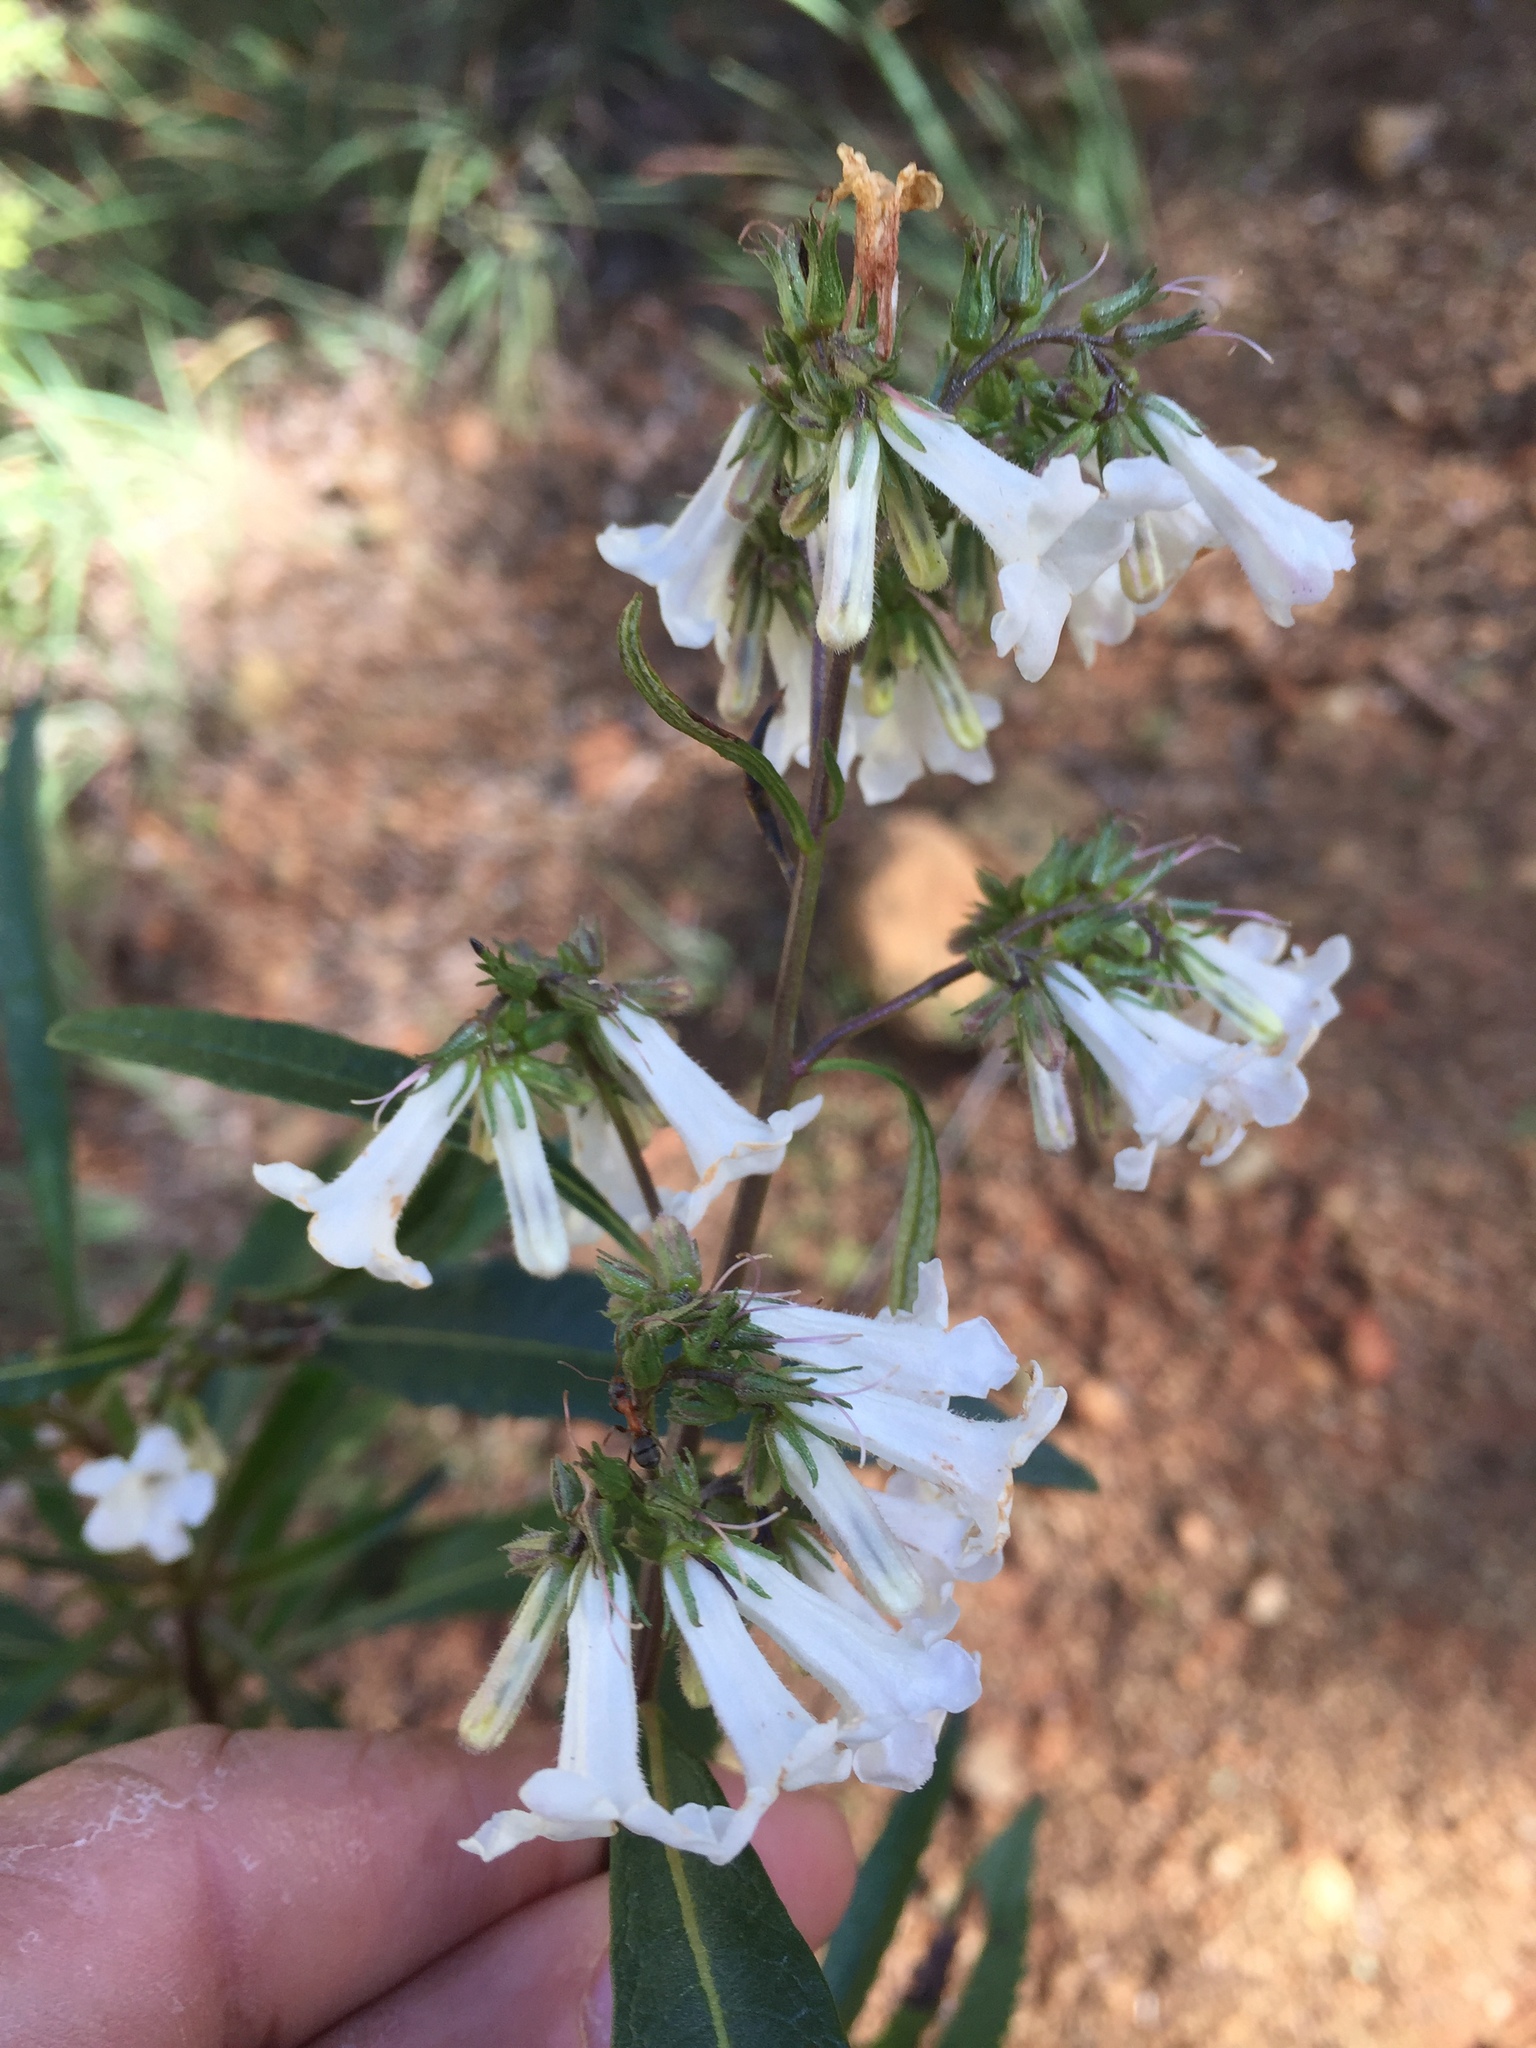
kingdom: Plantae
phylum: Tracheophyta
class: Magnoliopsida
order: Boraginales
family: Namaceae
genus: Eriodictyon
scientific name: Eriodictyon californicum
